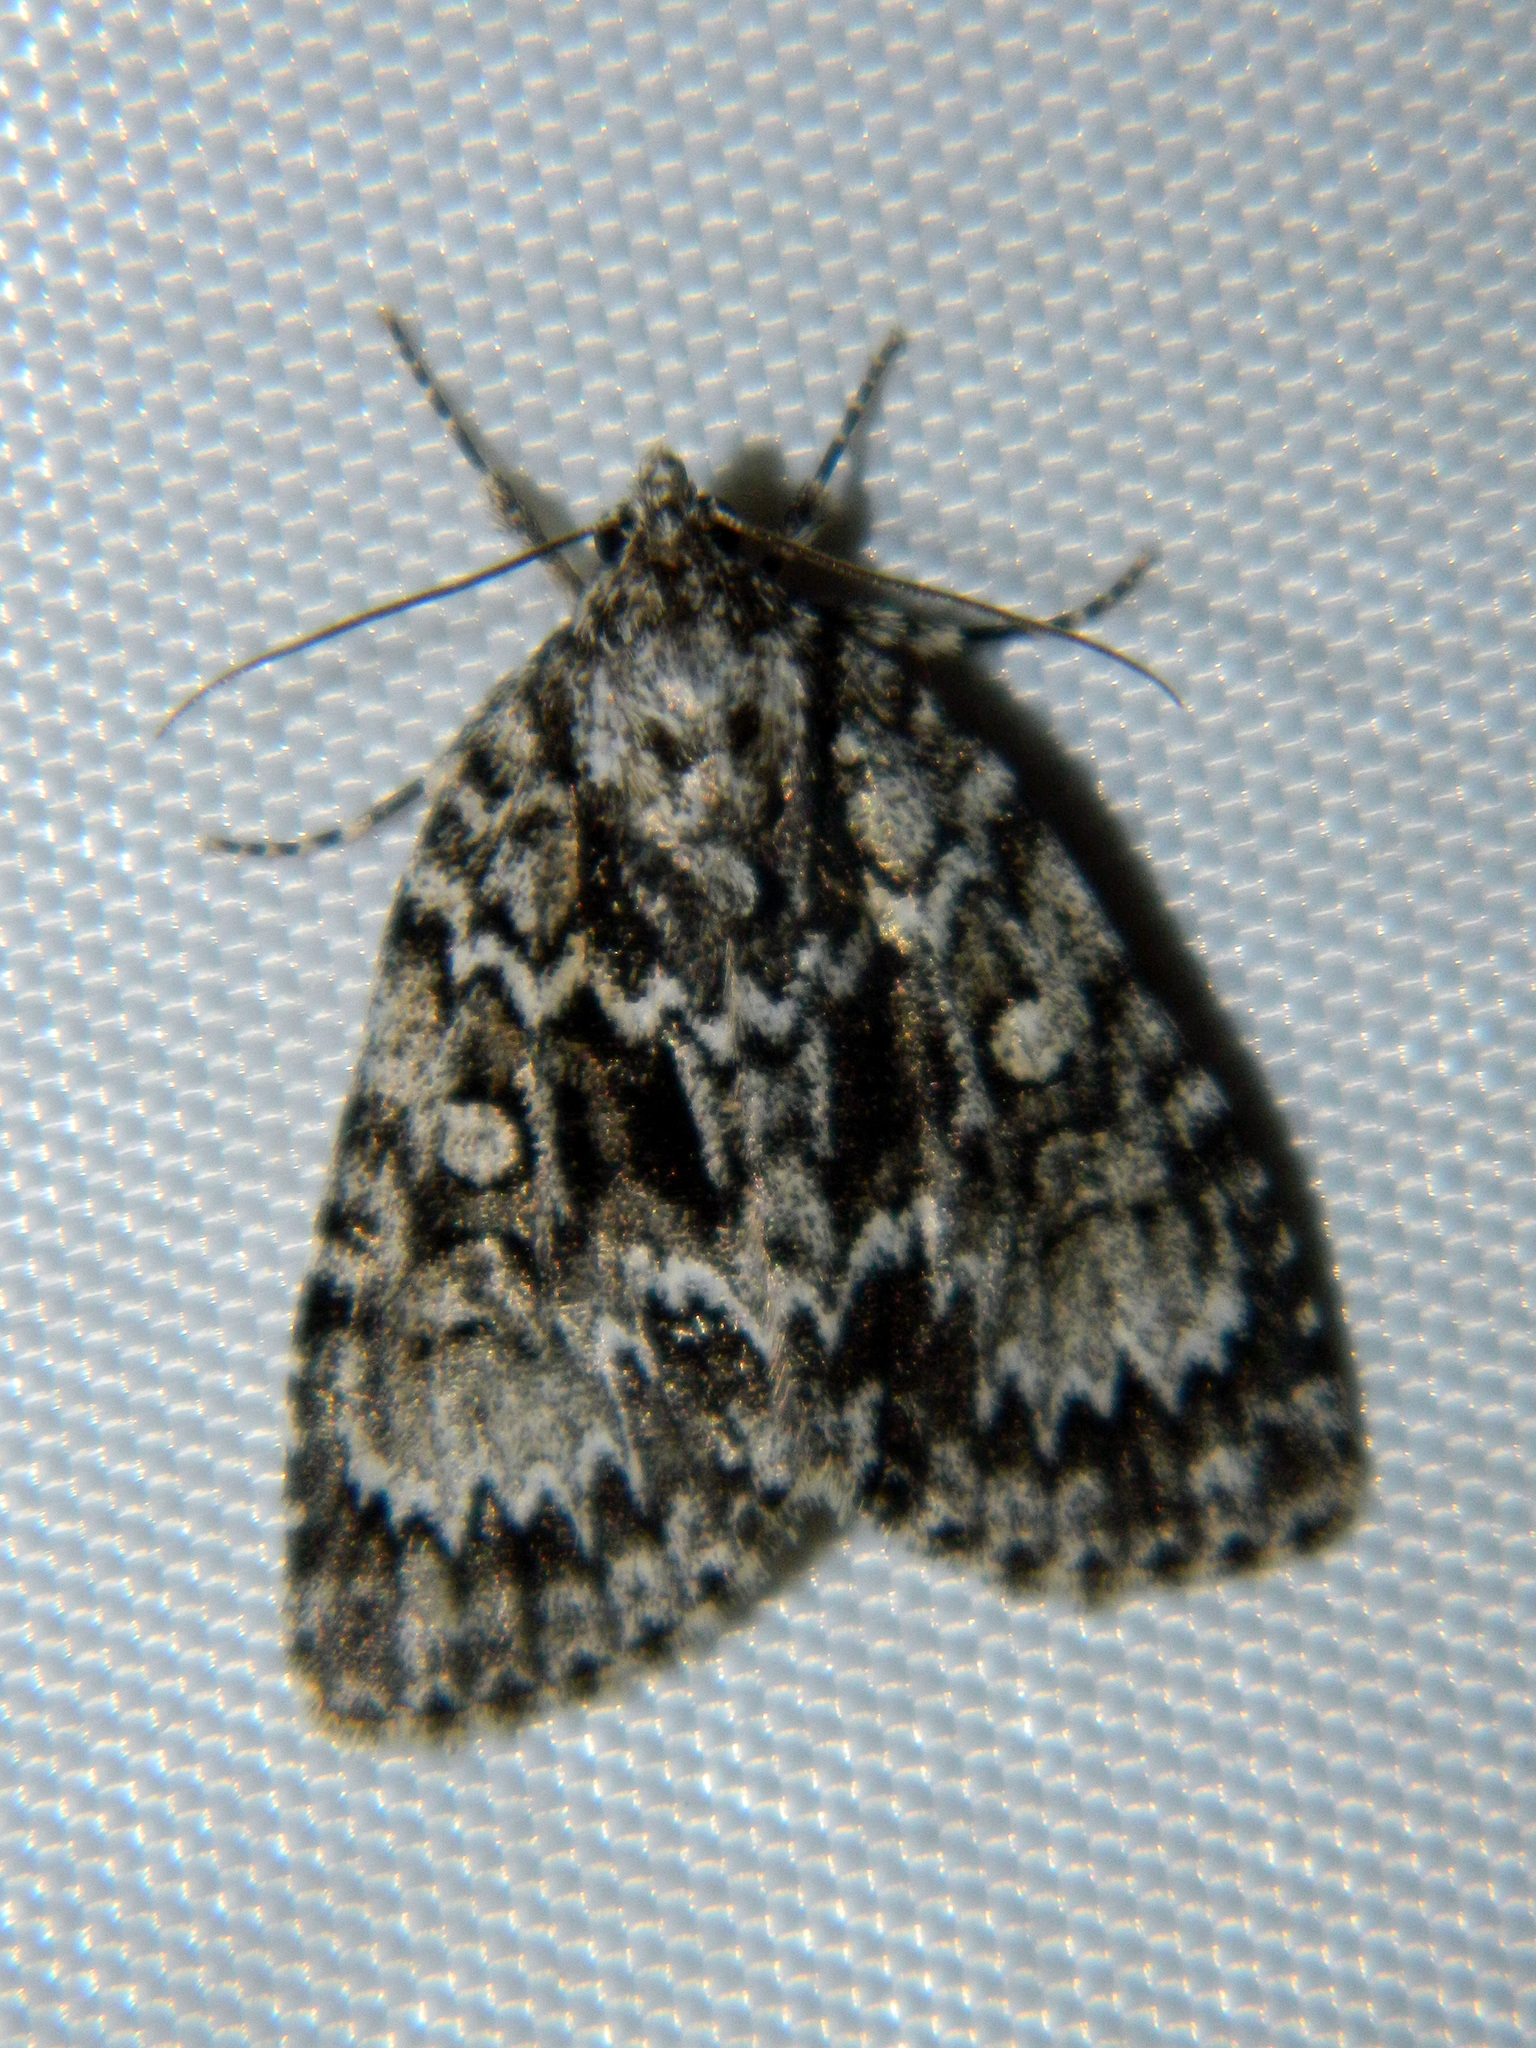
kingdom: Animalia
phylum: Arthropoda
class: Insecta
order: Lepidoptera
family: Noctuidae
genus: Acronicta
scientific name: Acronicta fragilis
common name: Fragile dagger
